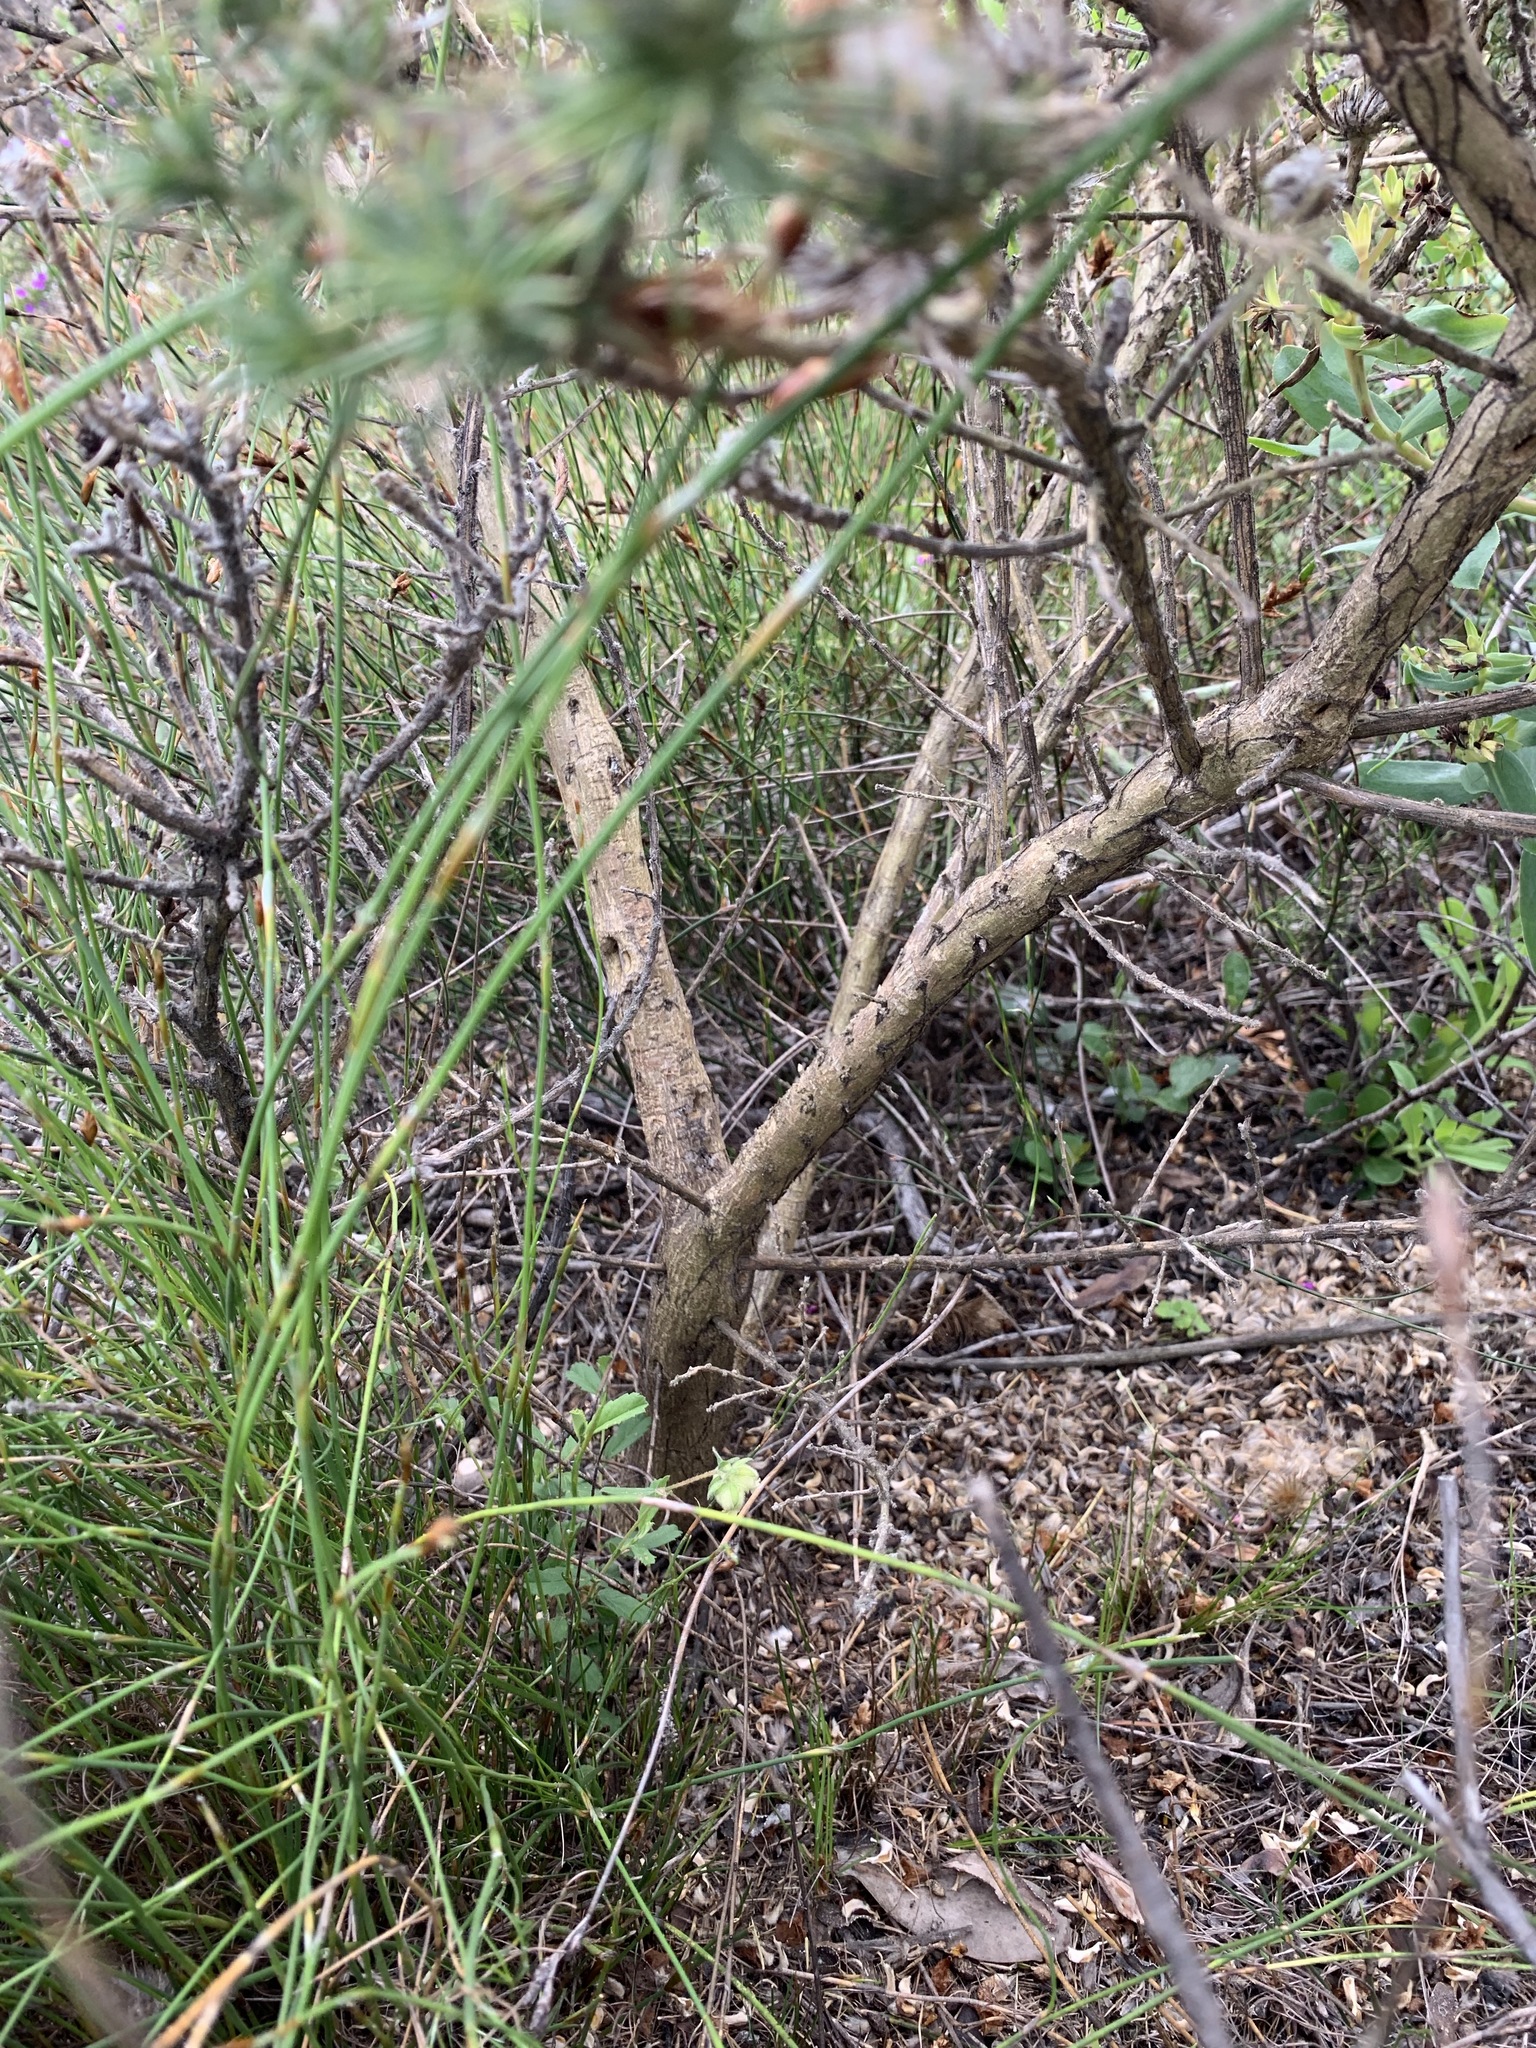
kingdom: Plantae
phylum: Tracheophyta
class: Magnoliopsida
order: Fabales
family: Fabaceae
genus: Aspalathus
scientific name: Aspalathus chenopoda
